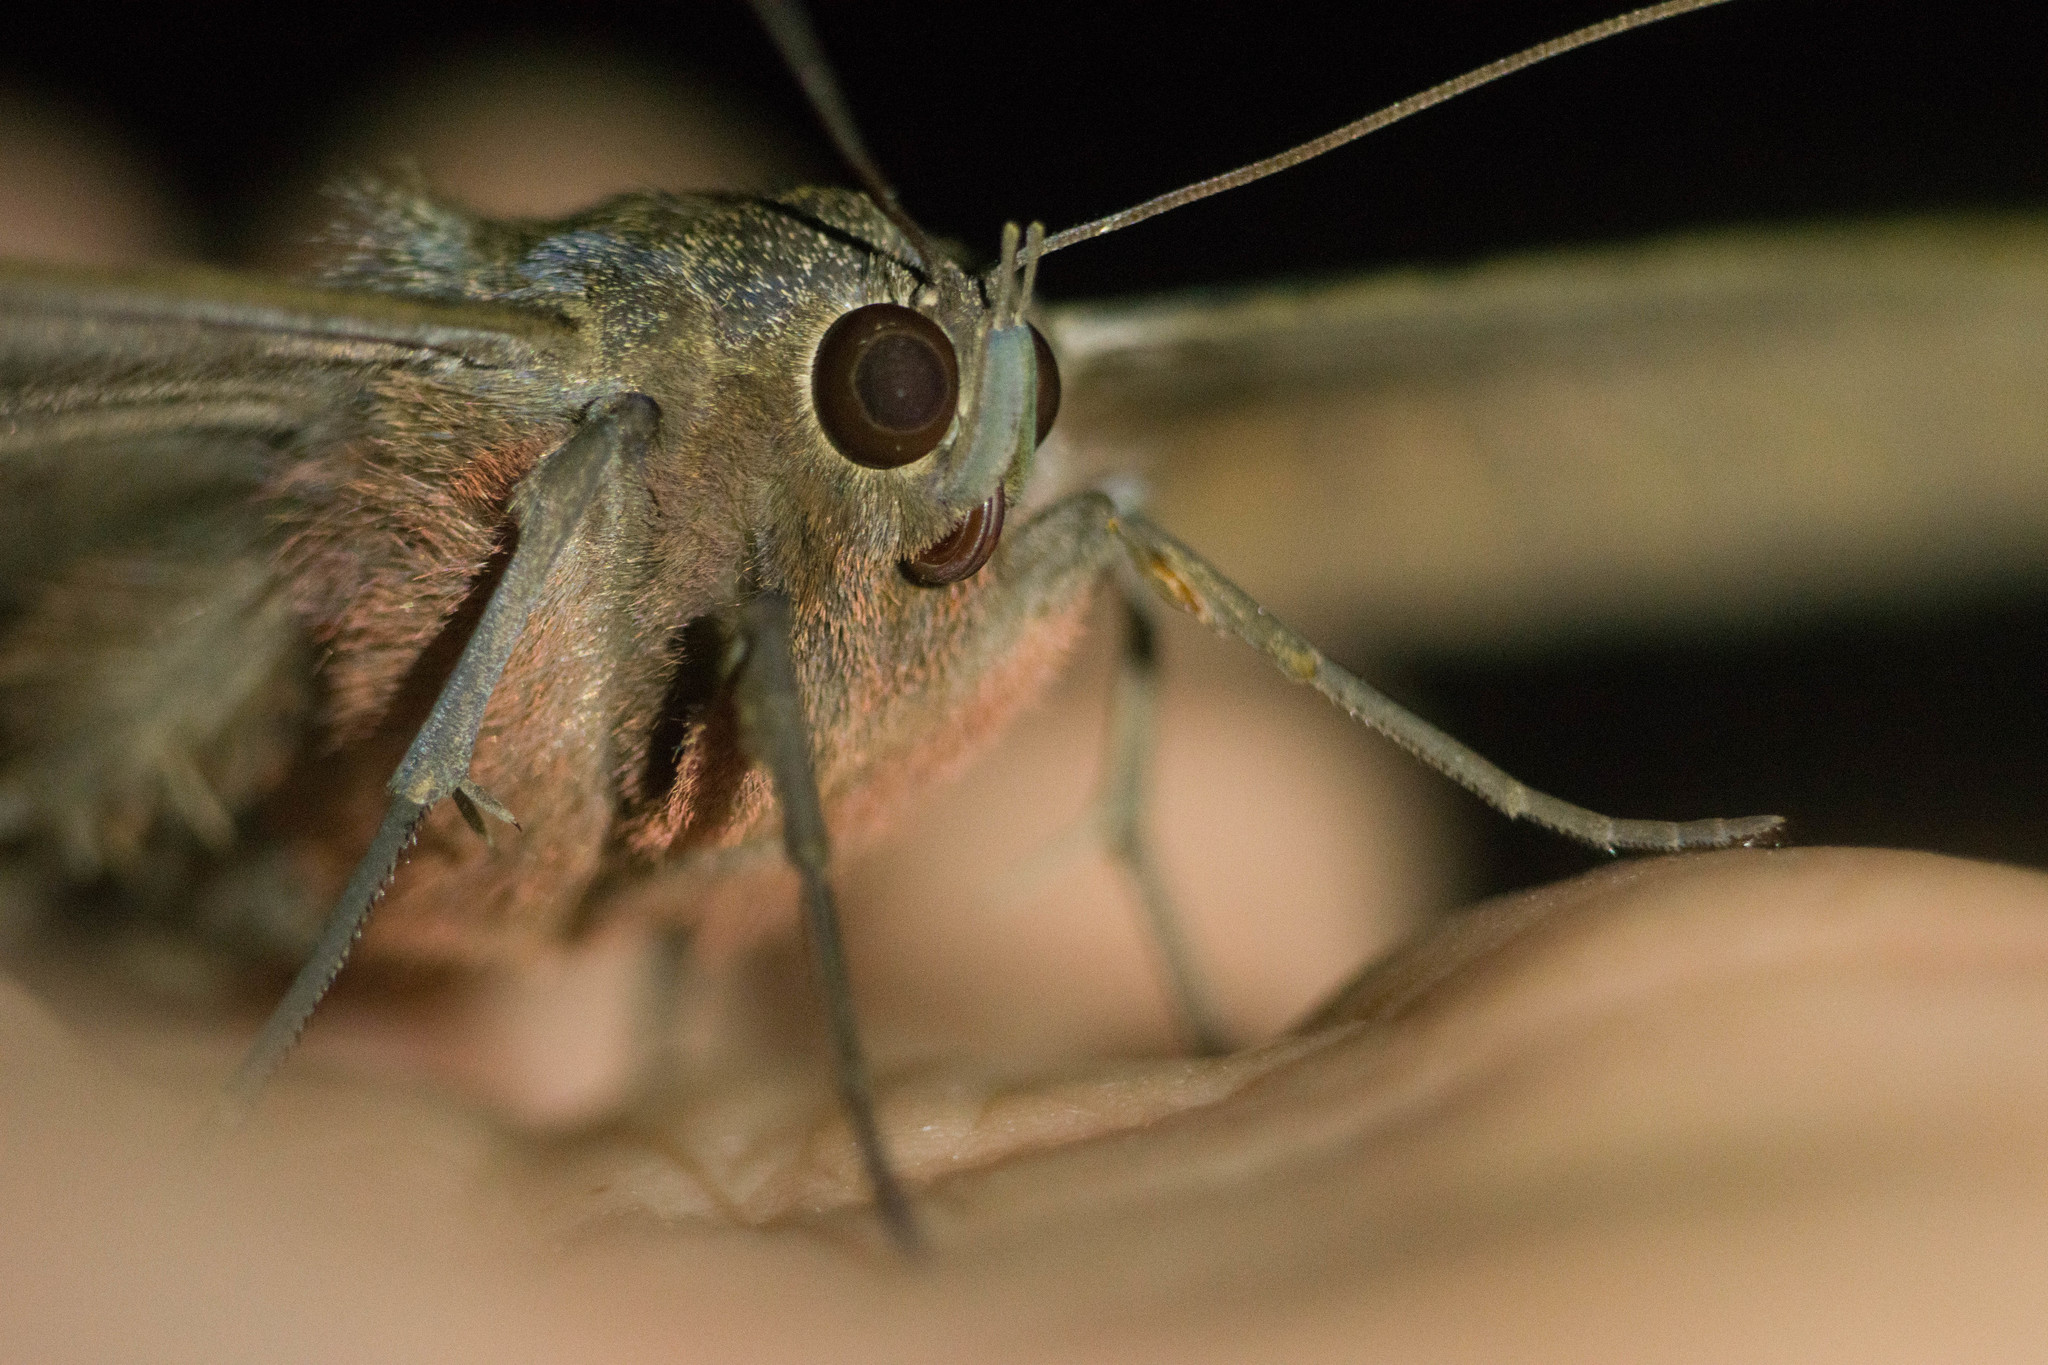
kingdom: Animalia
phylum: Arthropoda
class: Insecta
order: Lepidoptera
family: Erebidae
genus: Ascalapha
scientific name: Ascalapha odorata
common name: Black witch
